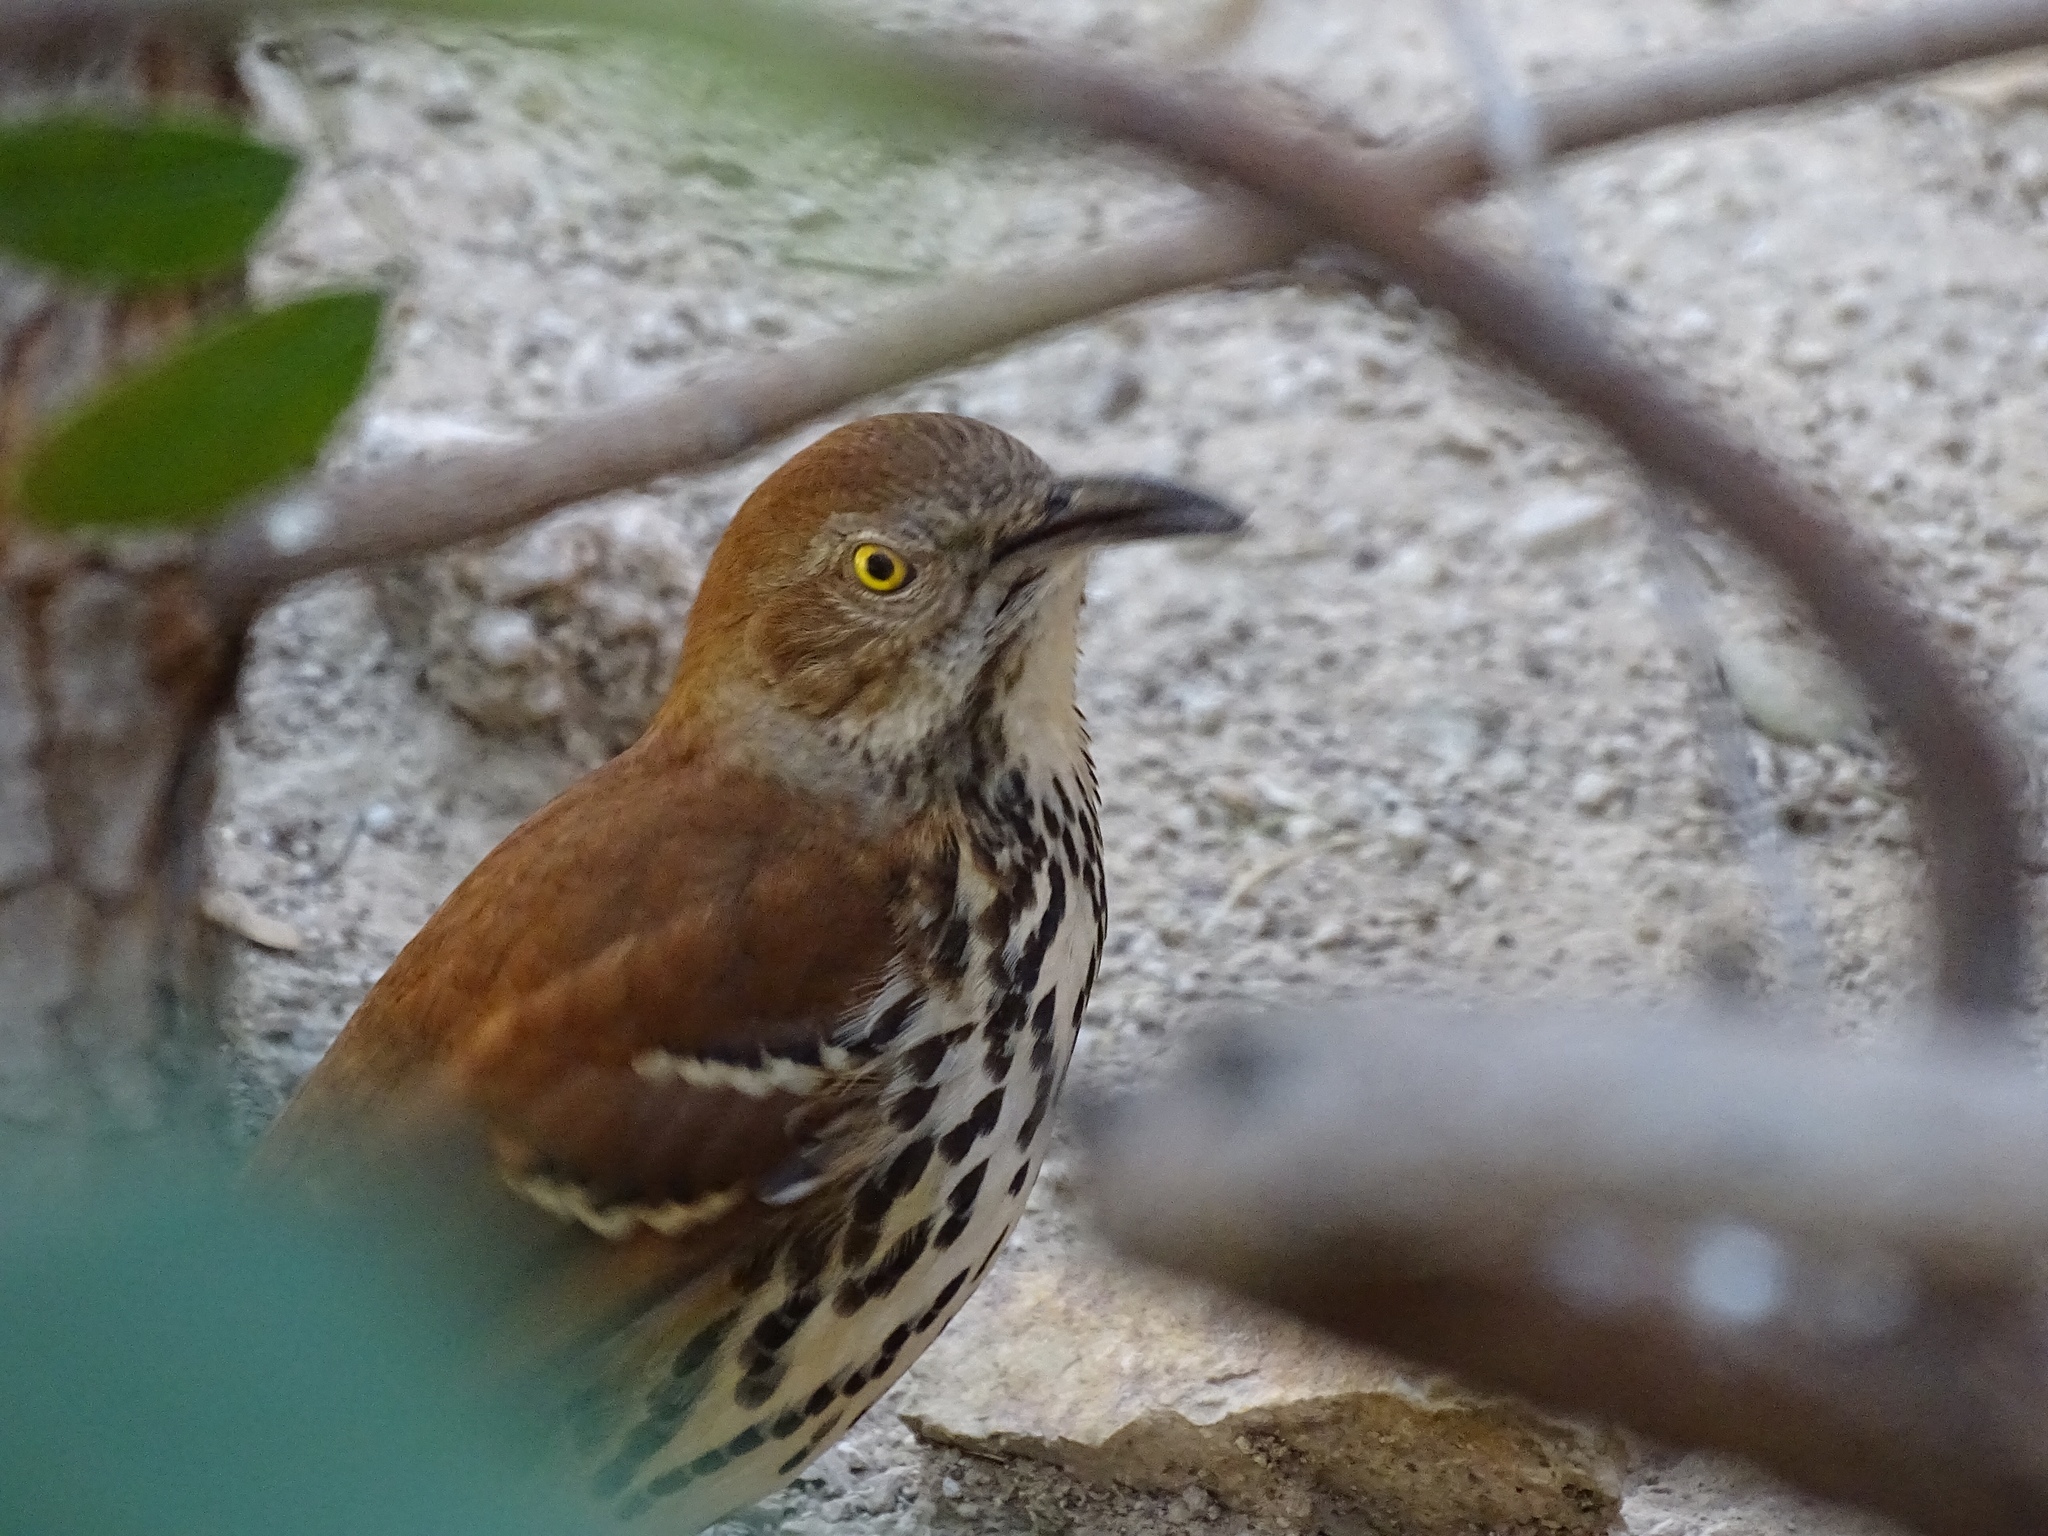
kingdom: Animalia
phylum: Chordata
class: Aves
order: Passeriformes
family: Mimidae
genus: Toxostoma
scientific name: Toxostoma rufum
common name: Brown thrasher
